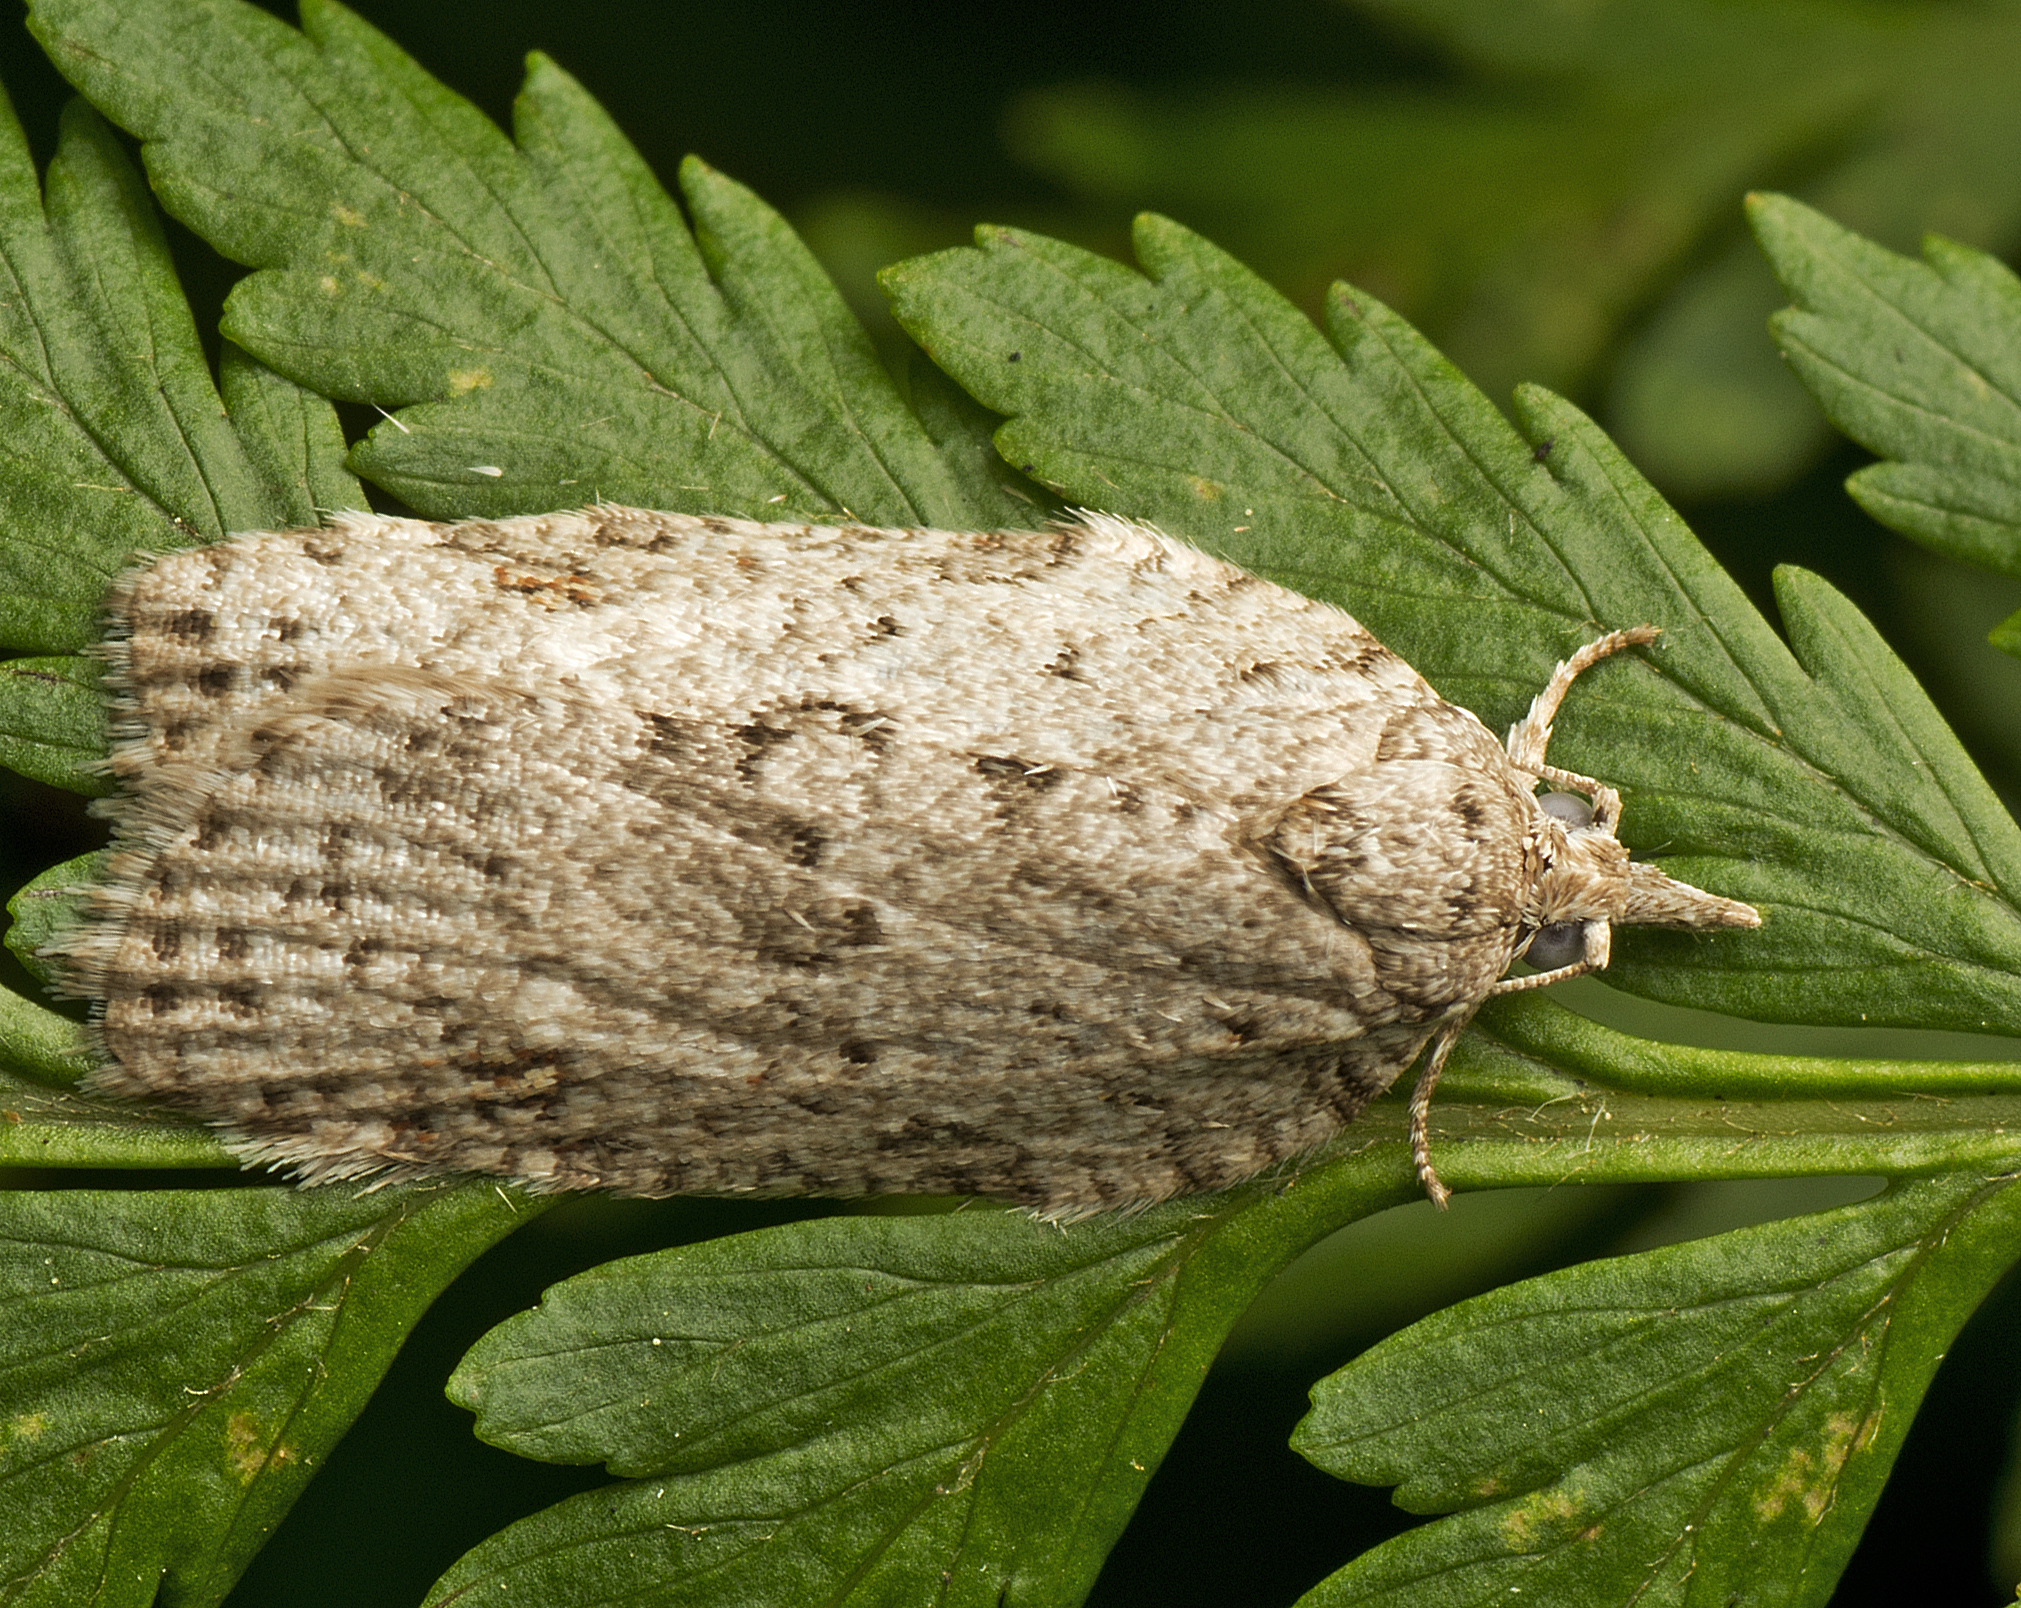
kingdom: Animalia
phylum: Arthropoda
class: Insecta
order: Lepidoptera
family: Tortricidae
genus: Isotenes
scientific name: Isotenes miserana
